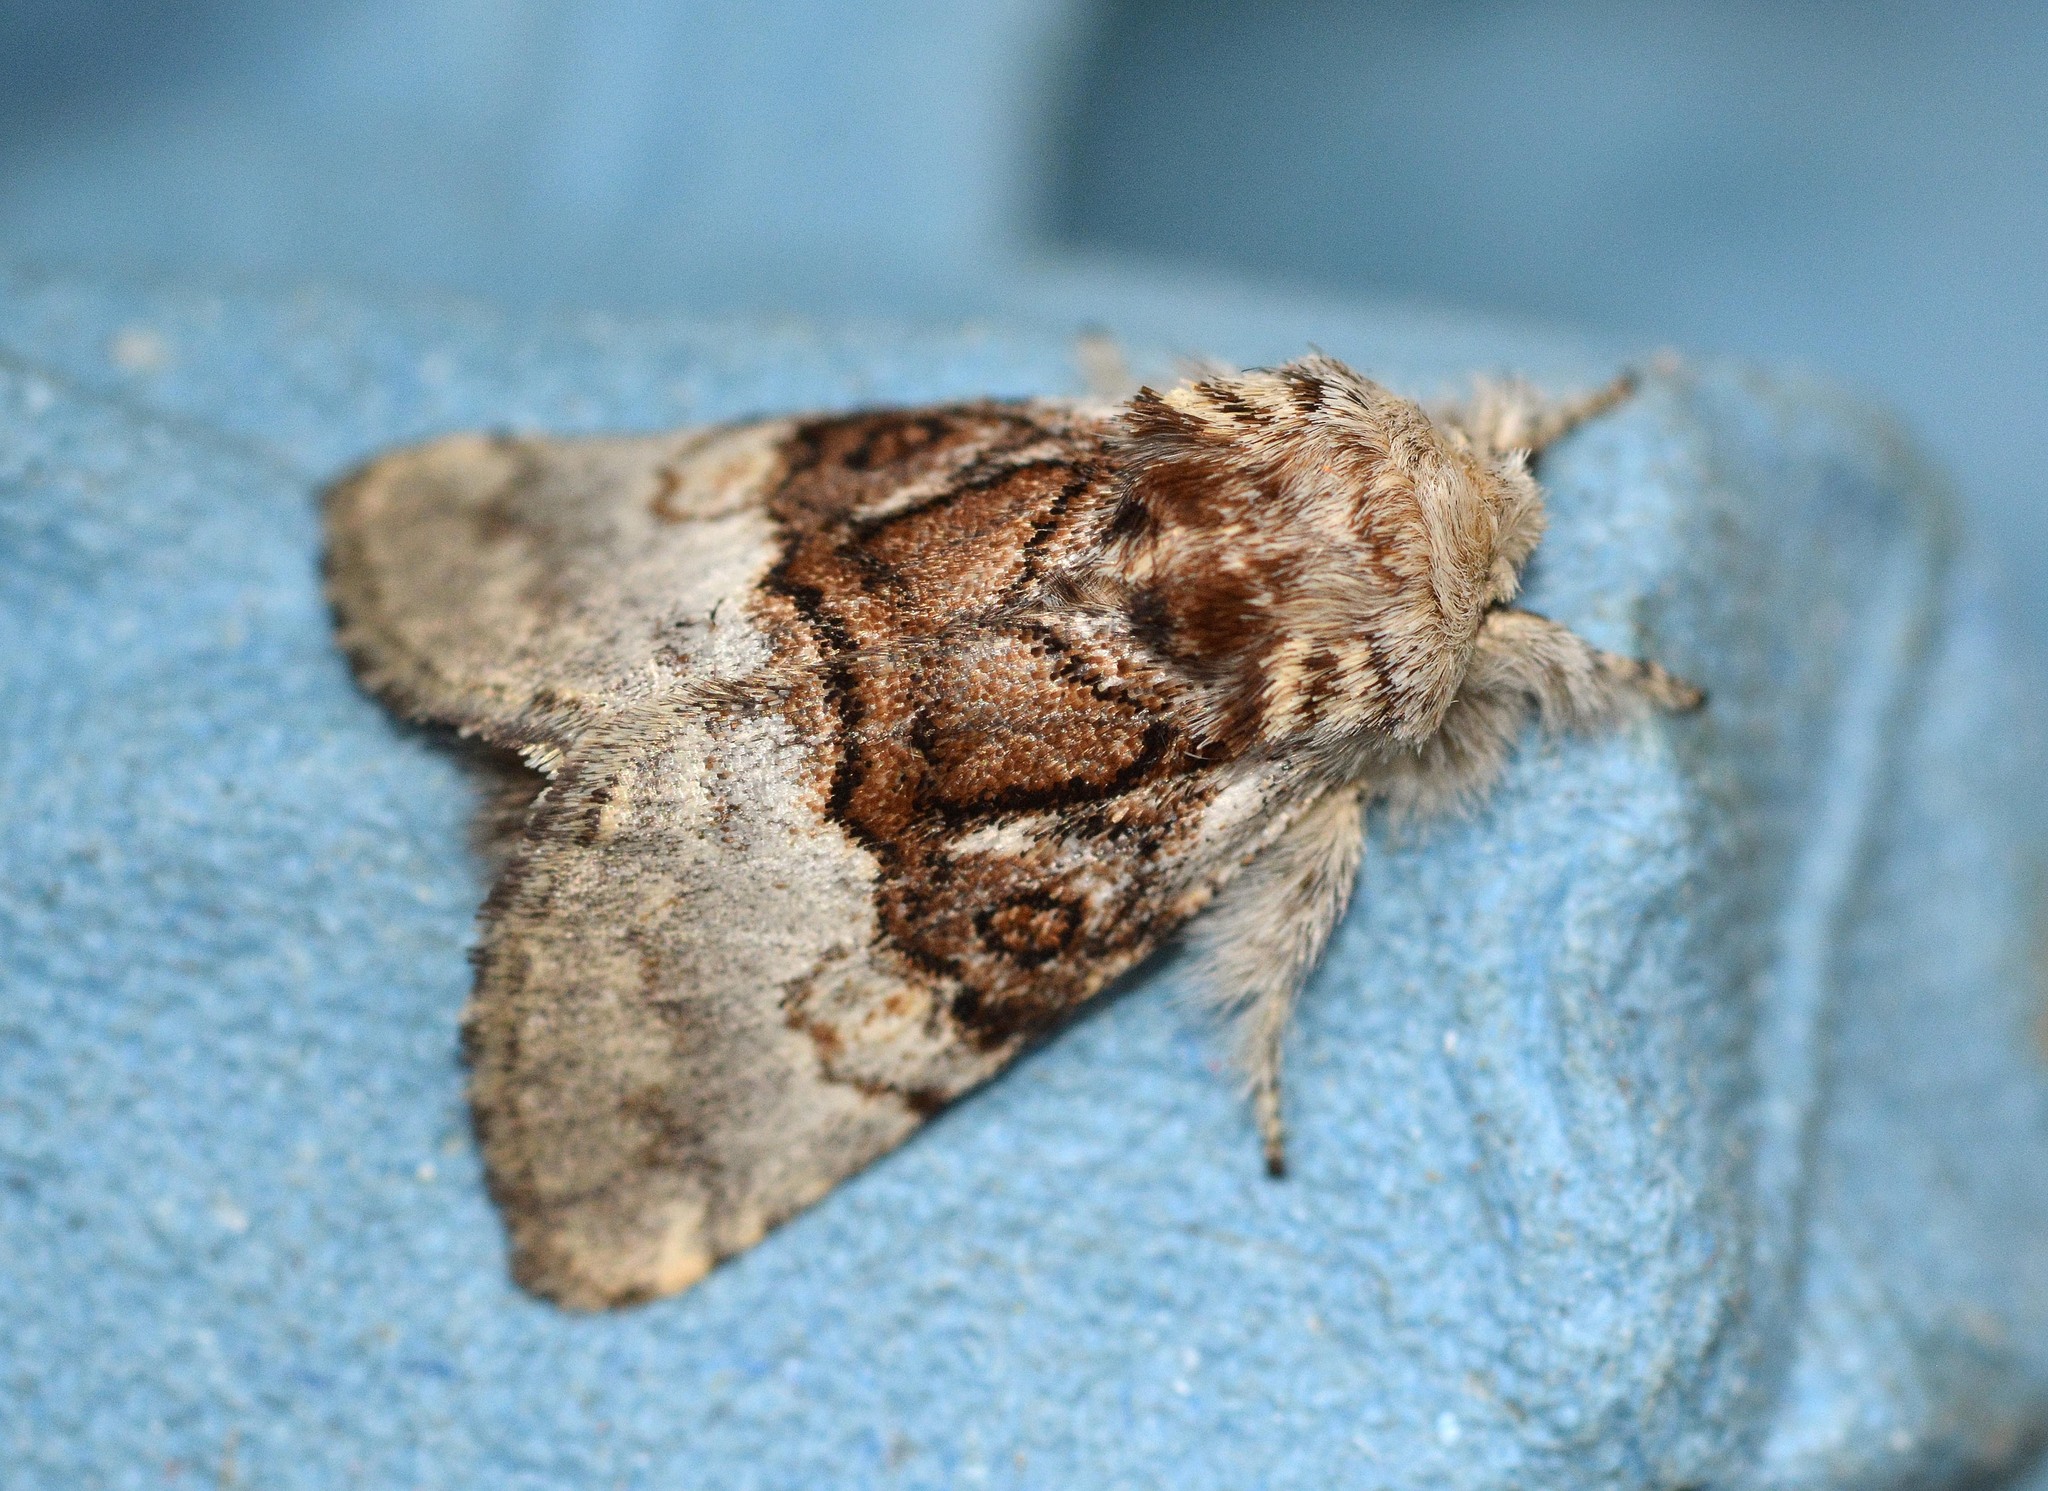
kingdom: Animalia
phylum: Arthropoda
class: Insecta
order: Lepidoptera
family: Noctuidae
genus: Colocasia
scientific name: Colocasia coryli
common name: Nut-tree tussock
